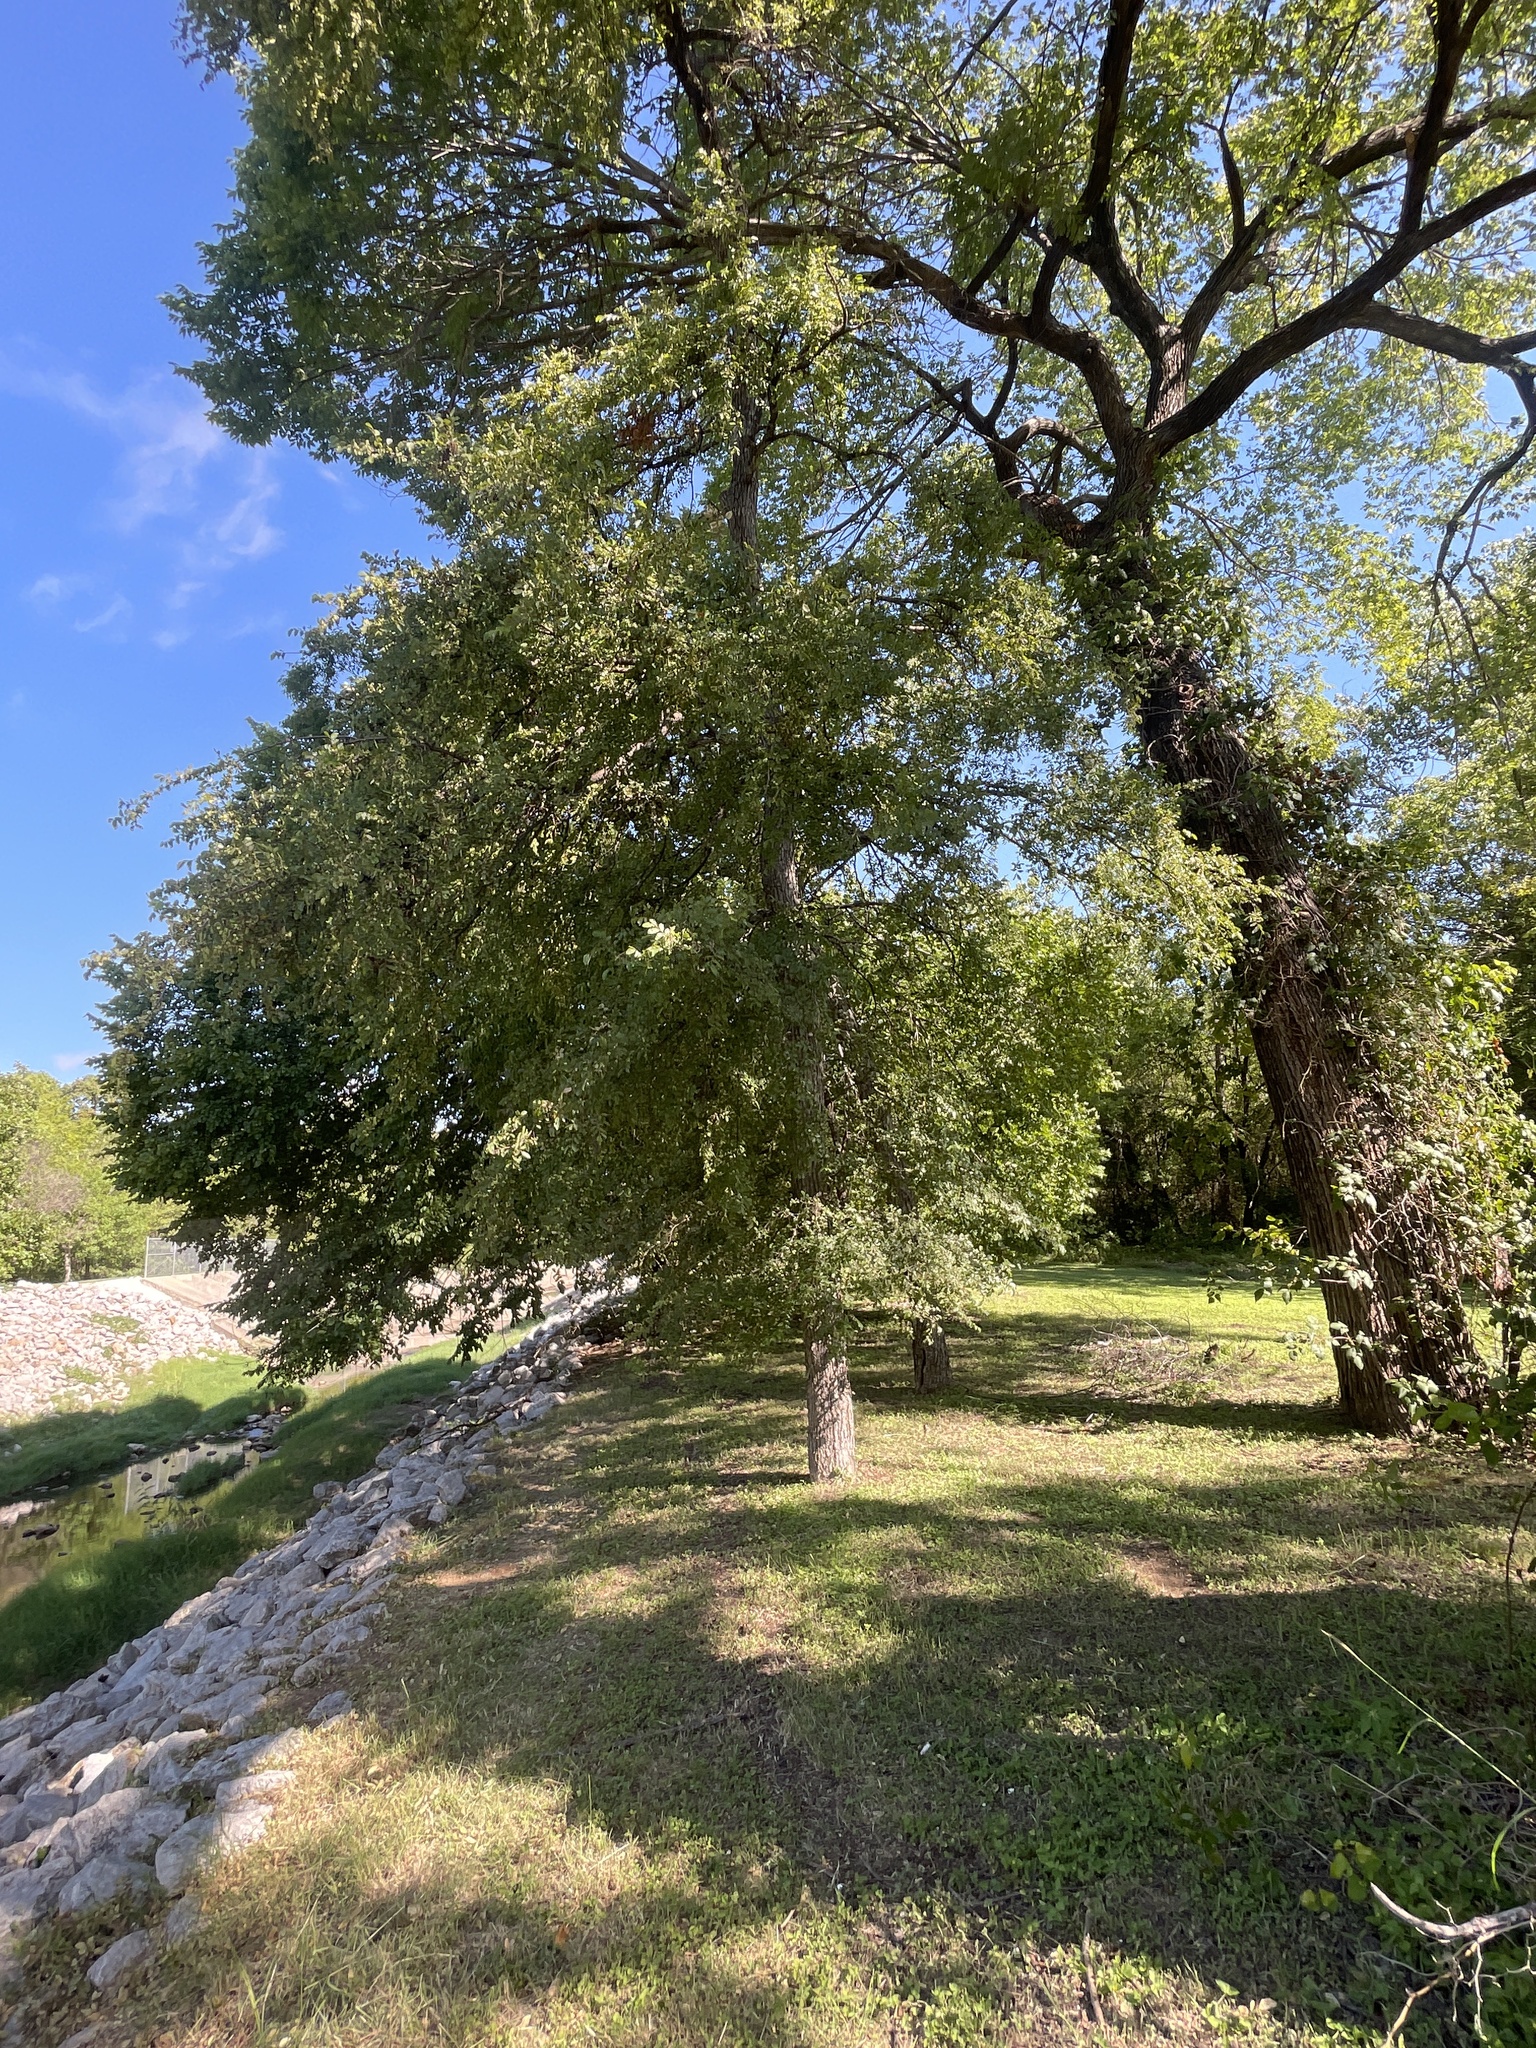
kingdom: Plantae
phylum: Tracheophyta
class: Magnoliopsida
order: Rosales
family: Ulmaceae
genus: Ulmus
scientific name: Ulmus crassifolia
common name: Basket elm
